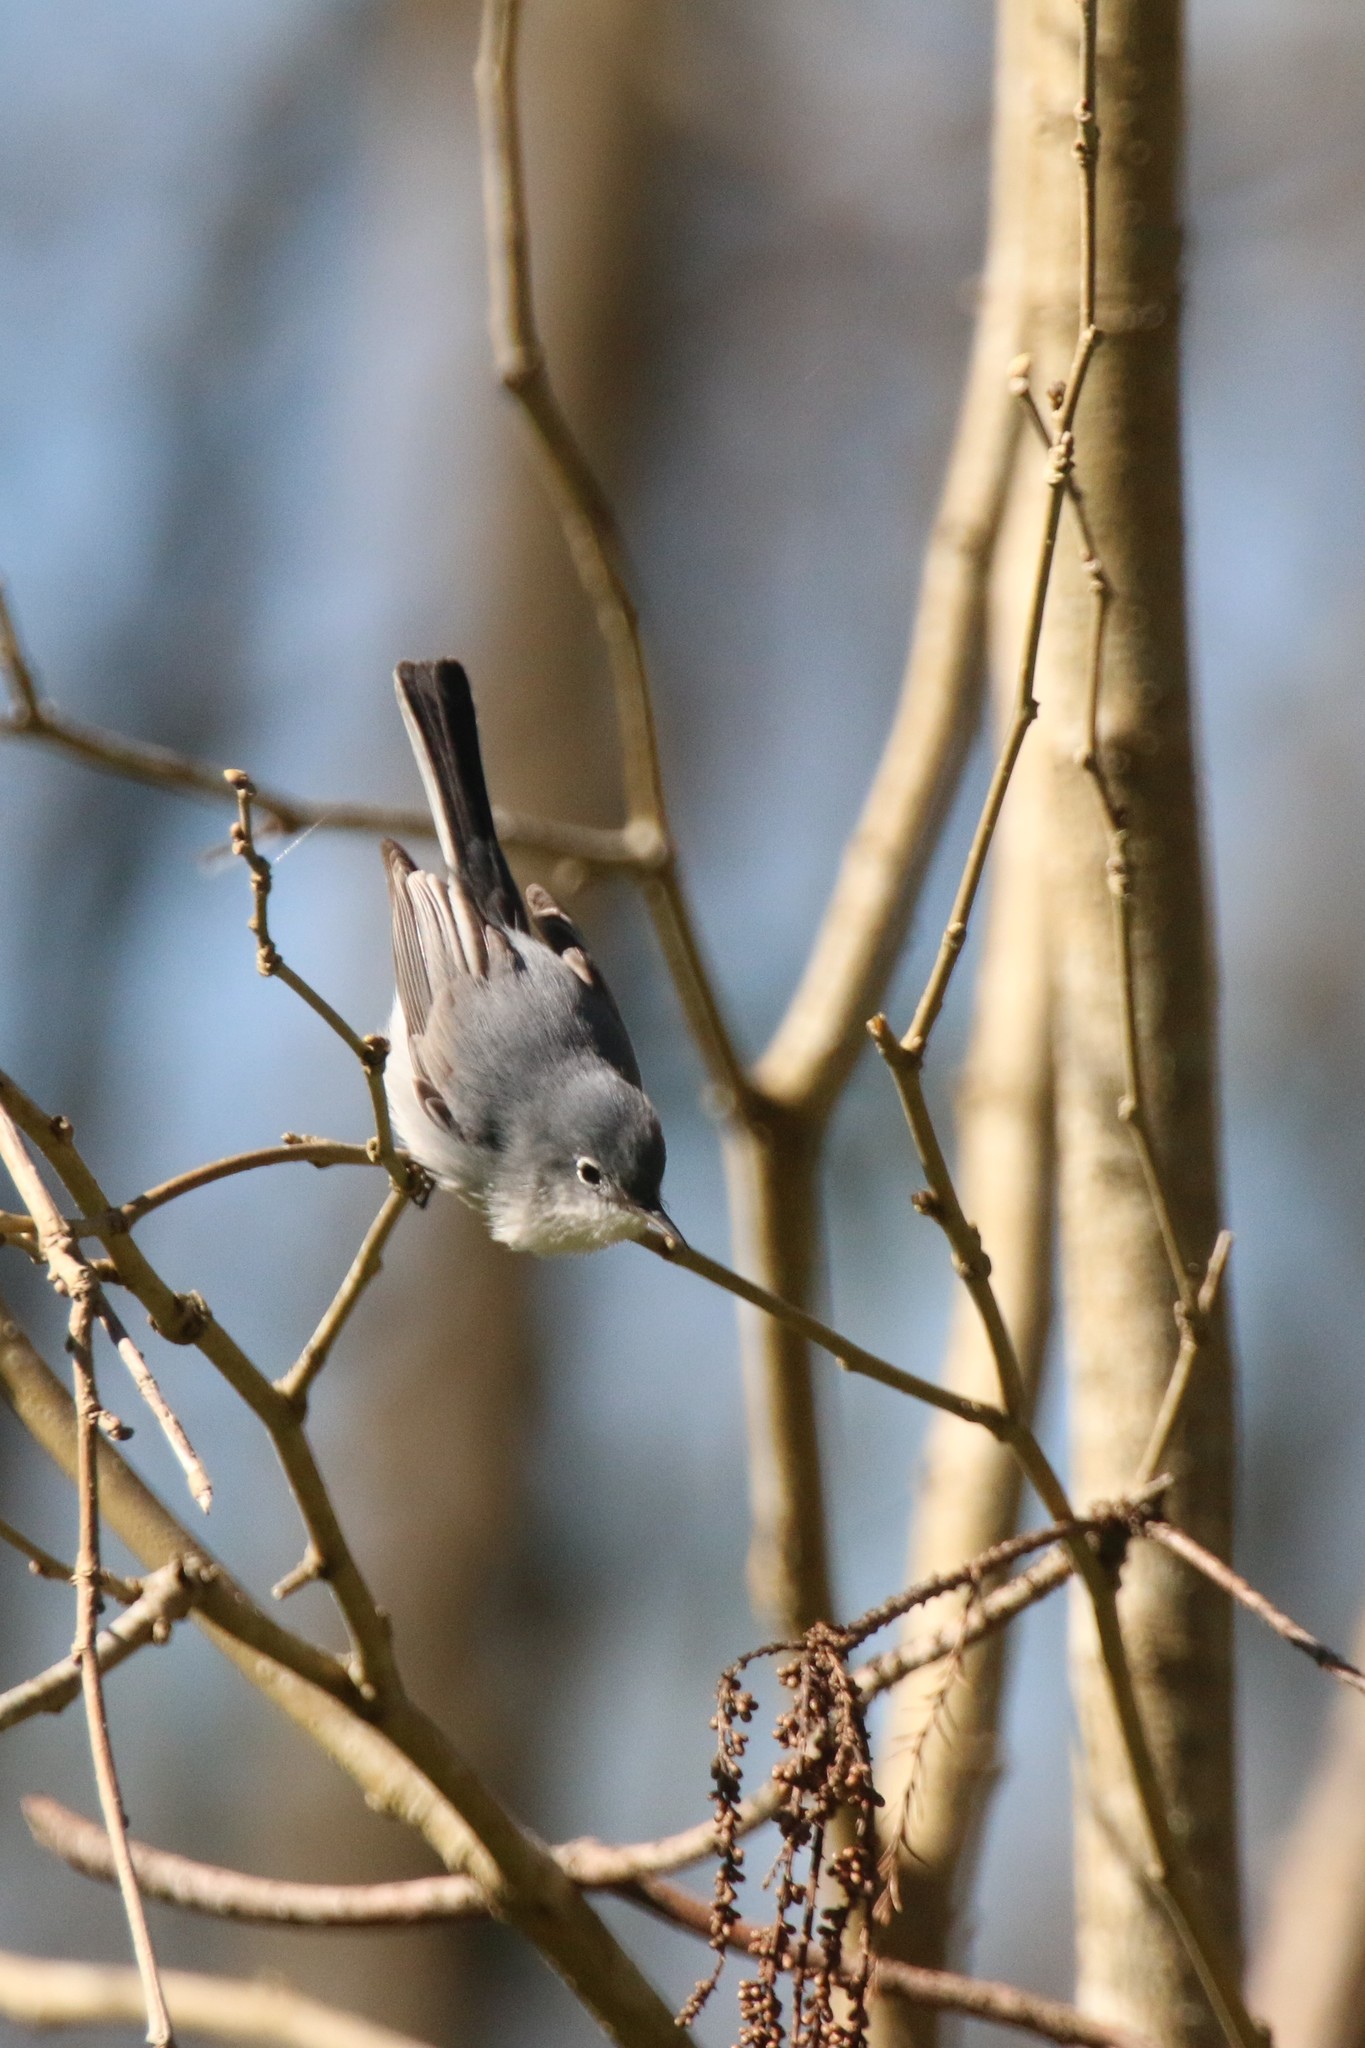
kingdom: Animalia
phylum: Chordata
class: Aves
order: Passeriformes
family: Polioptilidae
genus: Polioptila
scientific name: Polioptila caerulea
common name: Blue-gray gnatcatcher
